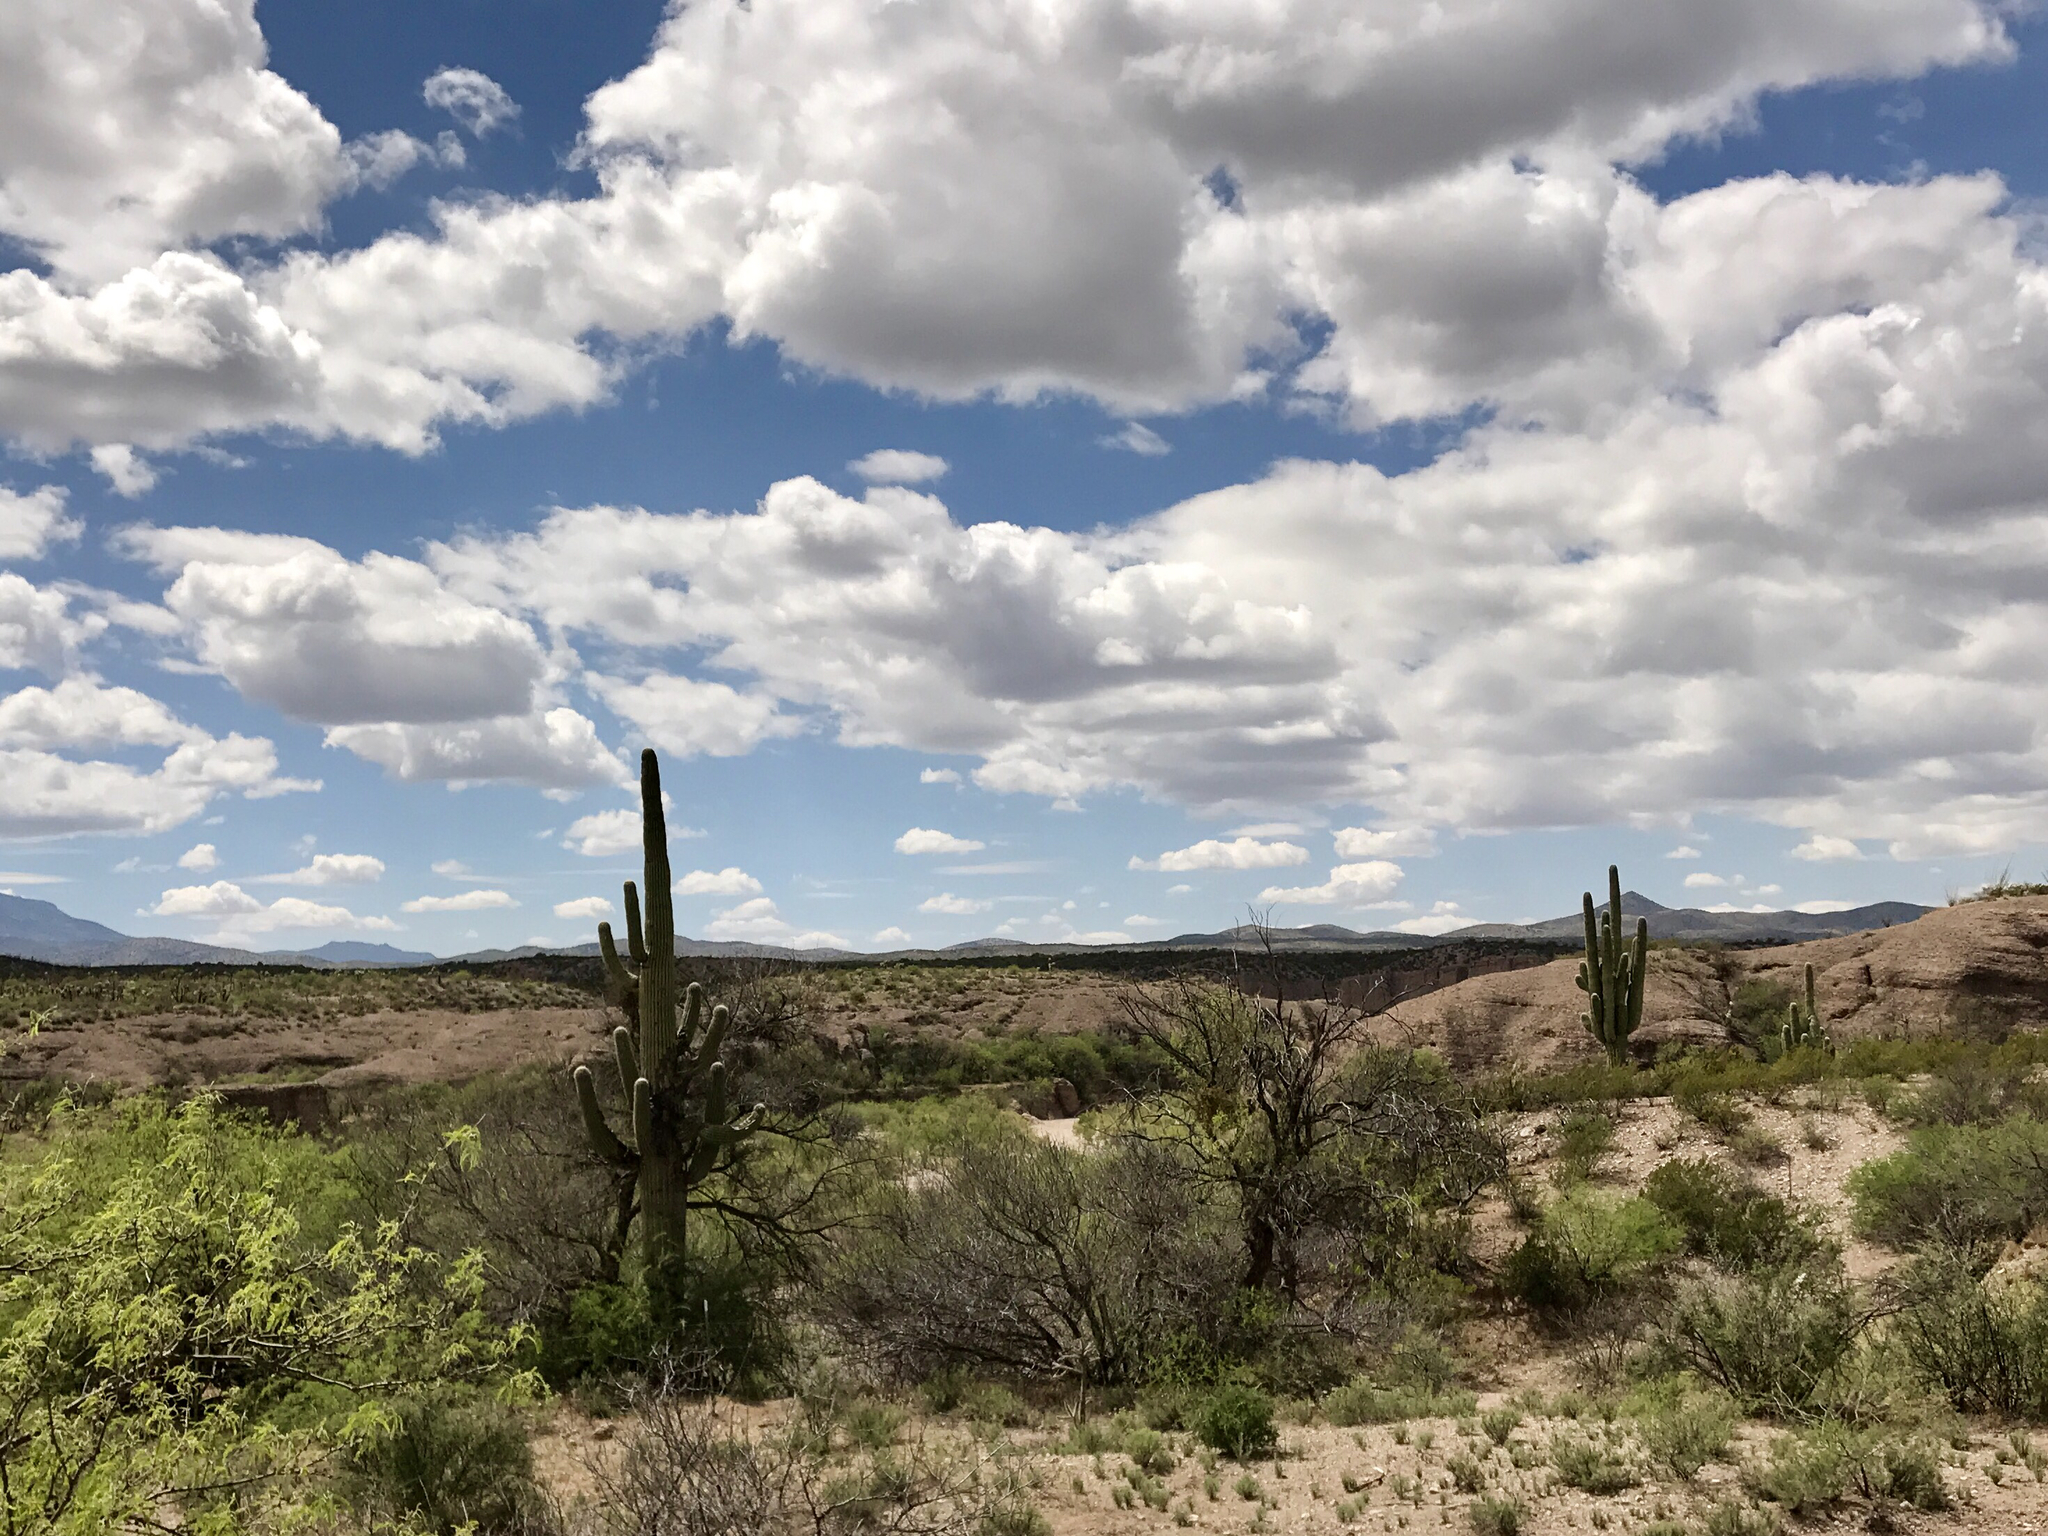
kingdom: Plantae
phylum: Tracheophyta
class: Magnoliopsida
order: Caryophyllales
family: Cactaceae
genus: Carnegiea
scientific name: Carnegiea gigantea
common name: Saguaro
